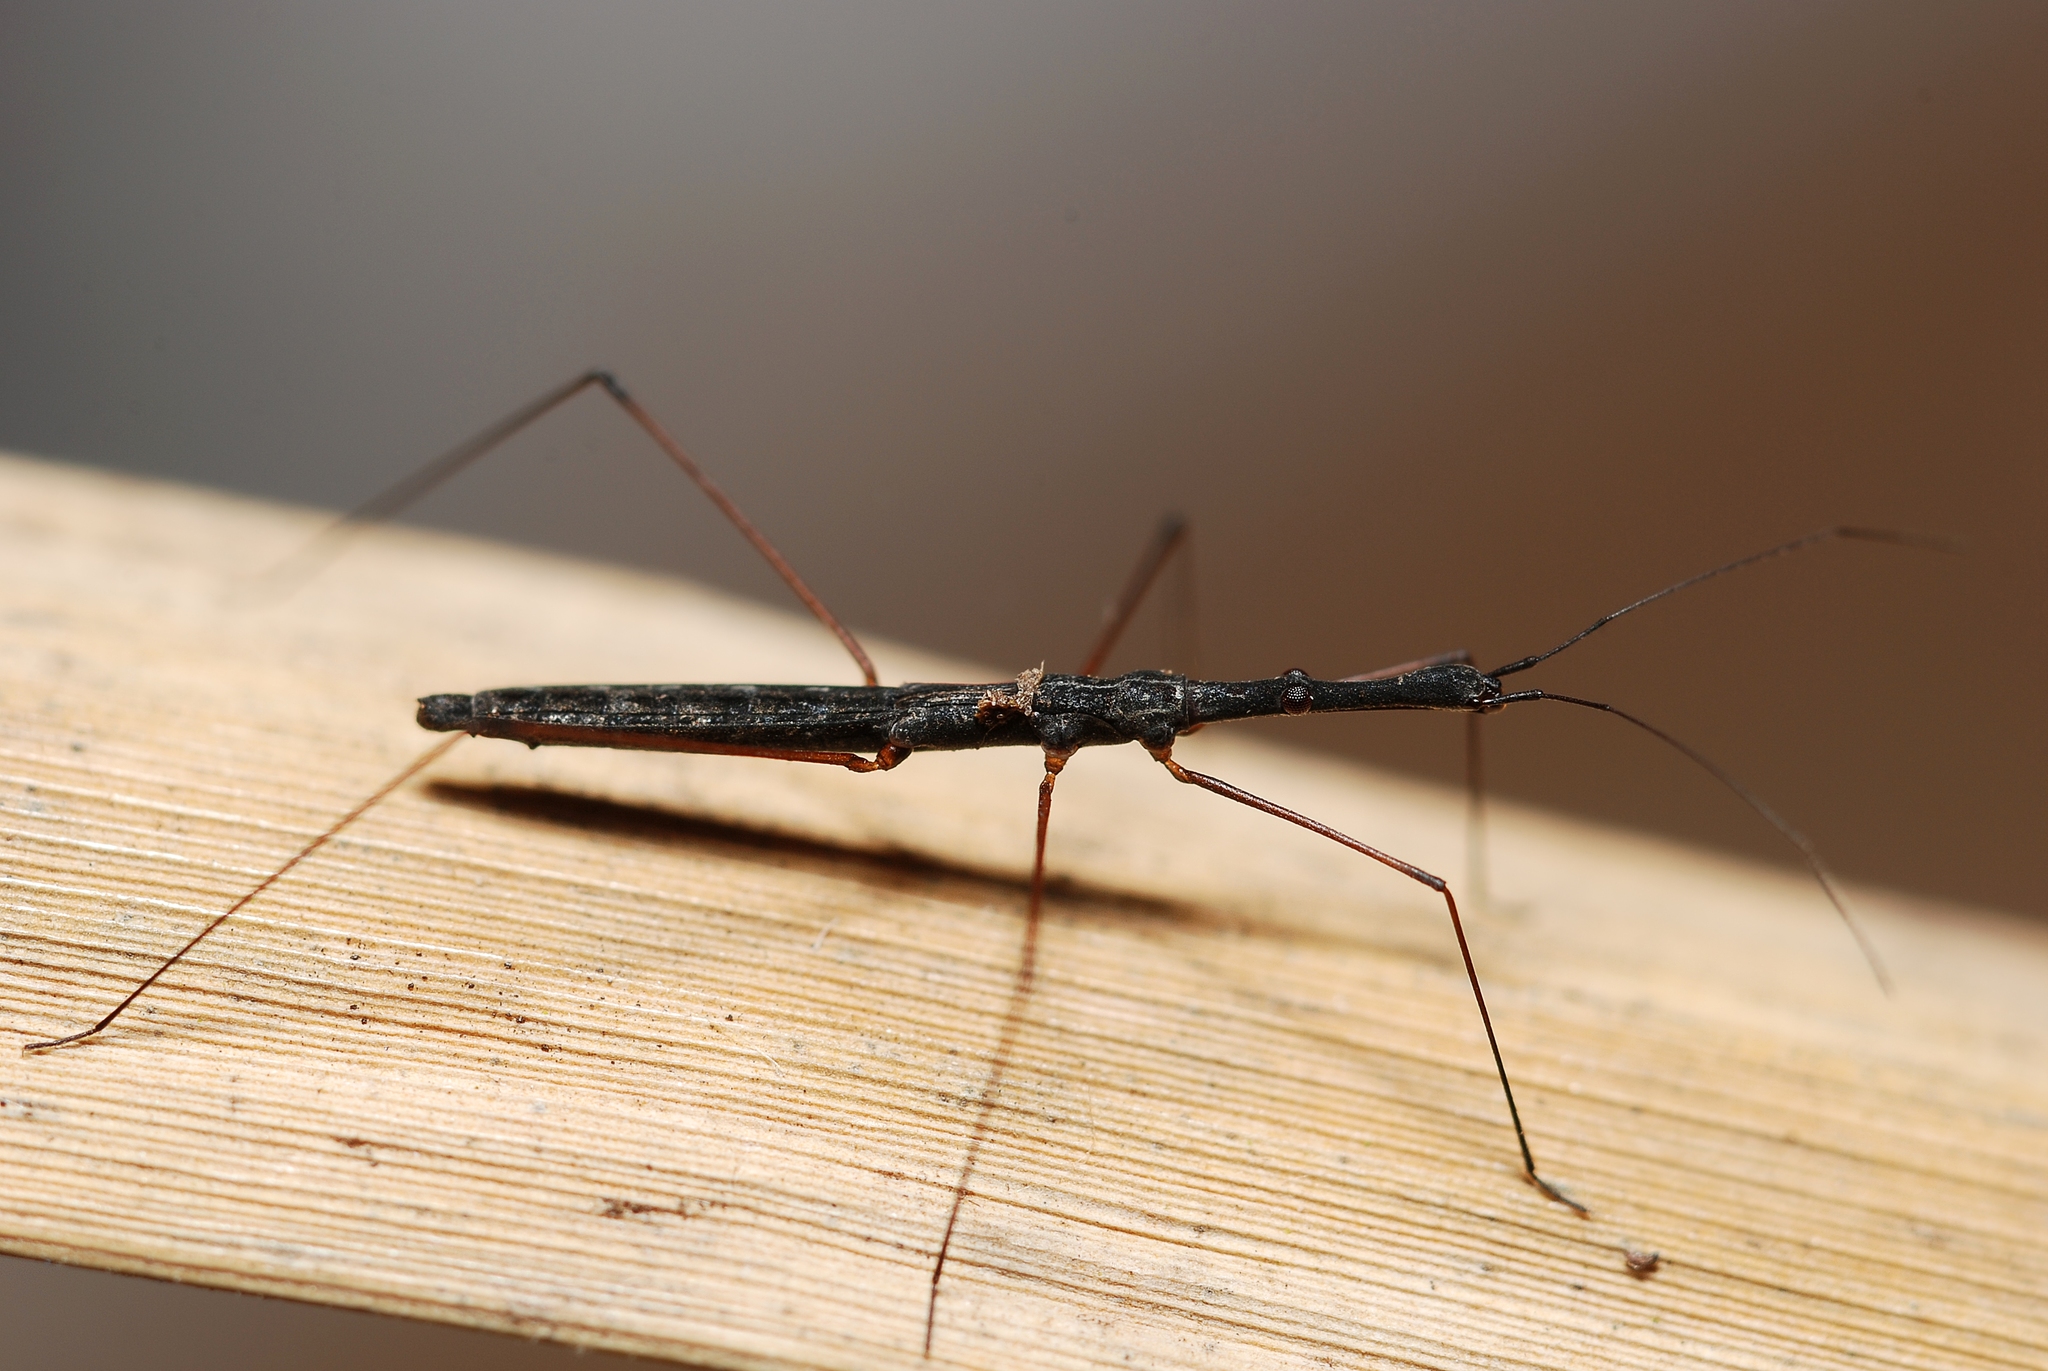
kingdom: Animalia
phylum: Arthropoda
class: Insecta
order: Hemiptera
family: Hydrometridae
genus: Hydrometra
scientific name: Hydrometra stagnorum
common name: Water measurer
